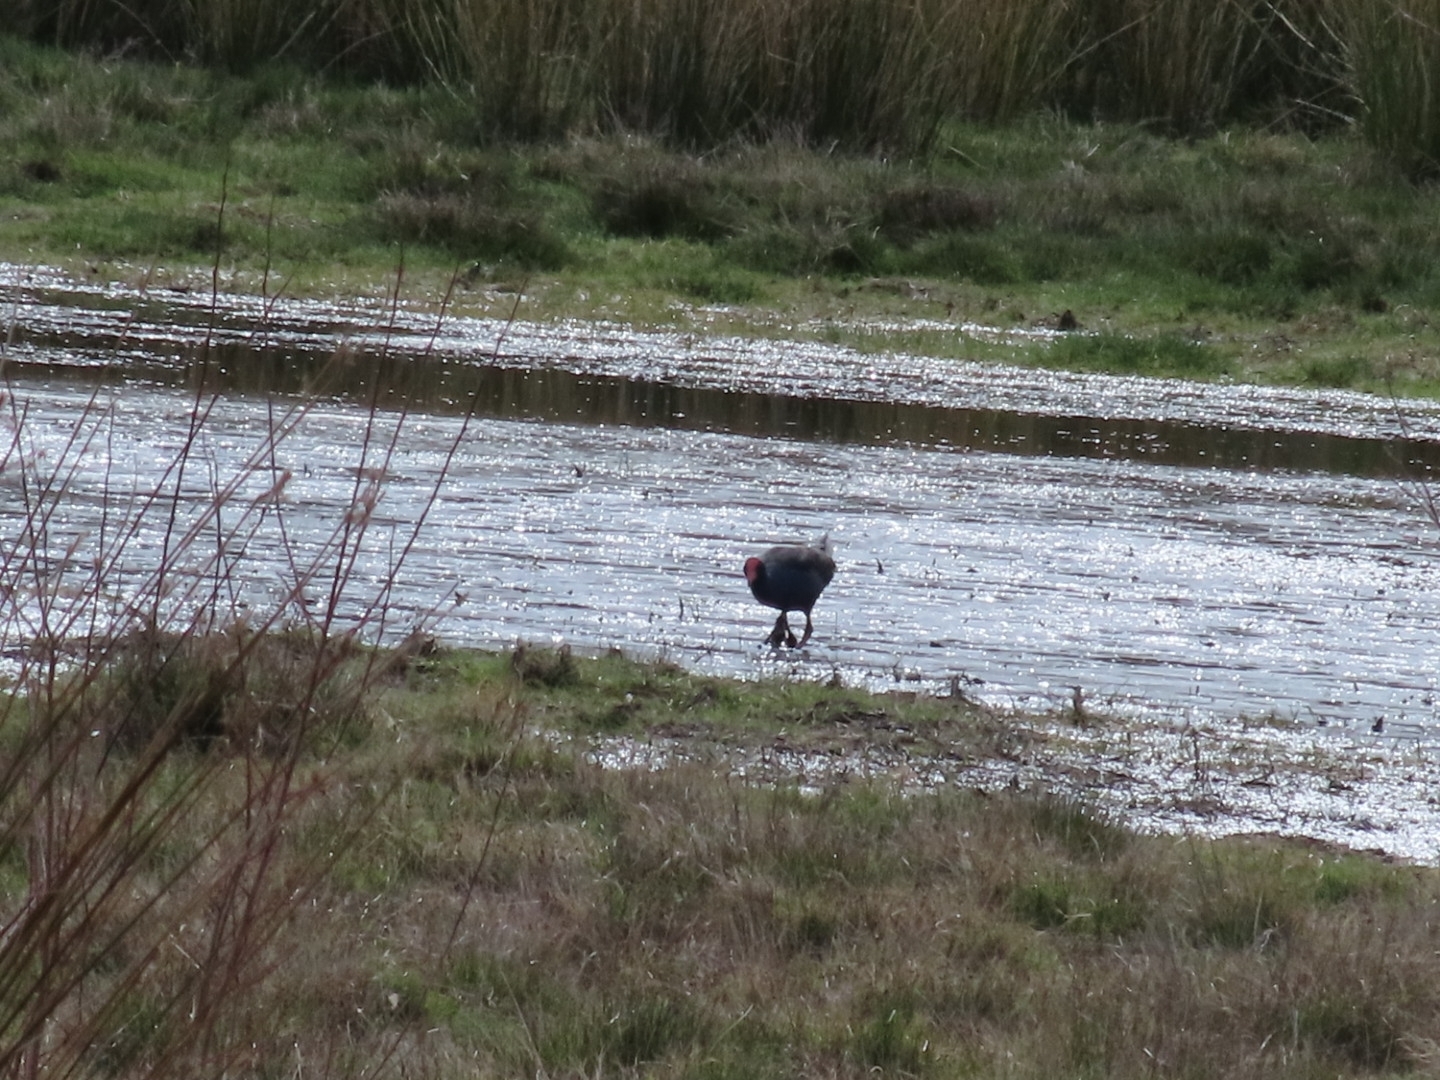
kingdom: Animalia
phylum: Chordata
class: Aves
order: Gruiformes
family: Rallidae
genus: Porphyrio
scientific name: Porphyrio melanotus
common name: Australasian swamphen
